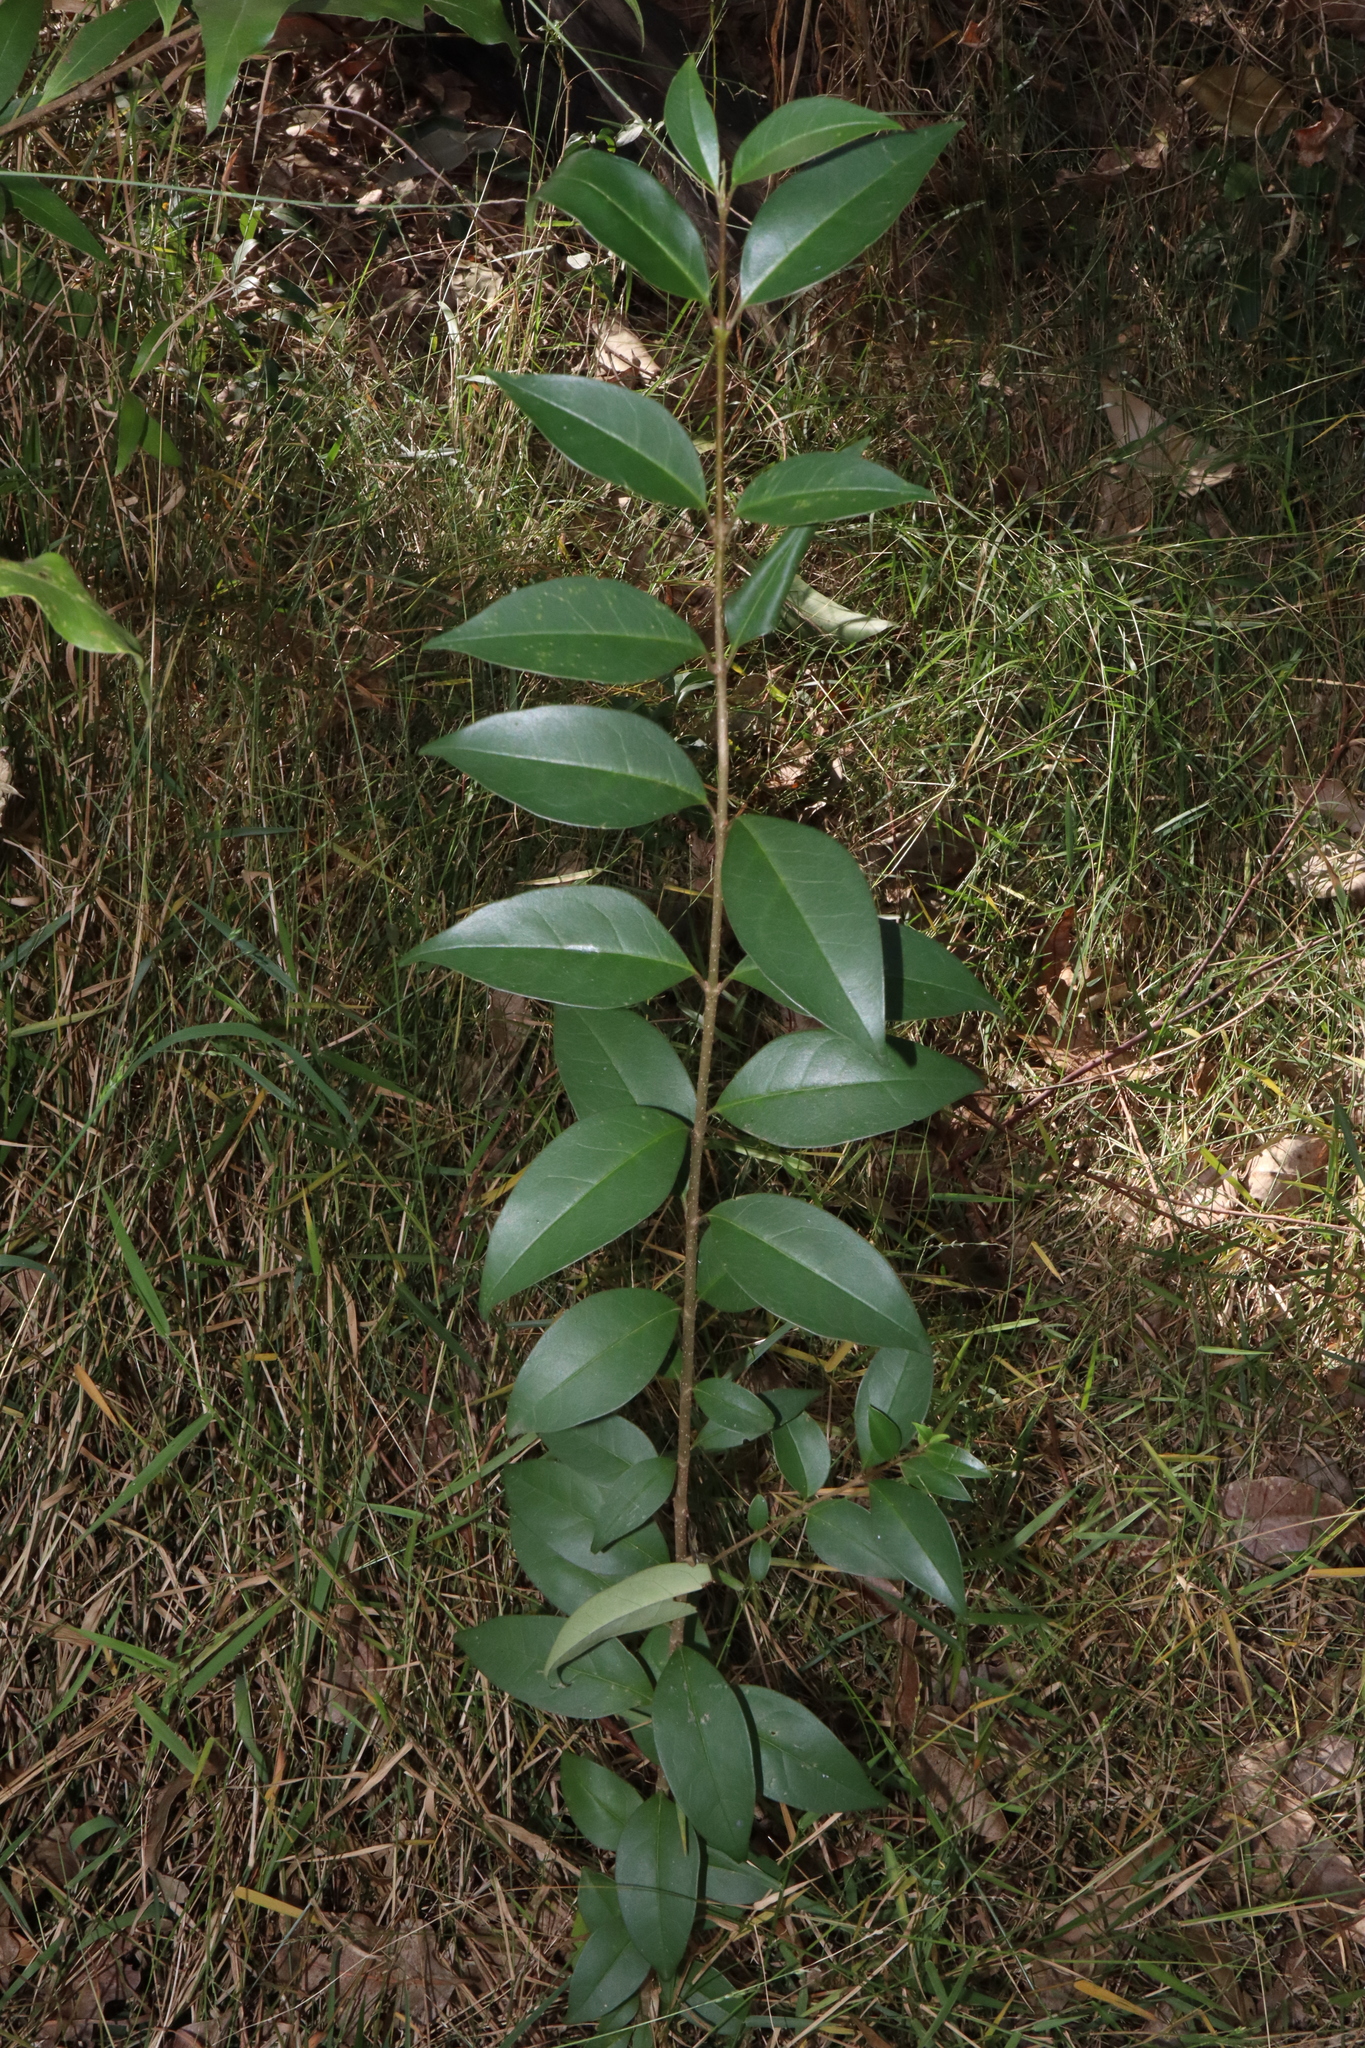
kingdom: Plantae
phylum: Tracheophyta
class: Magnoliopsida
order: Lamiales
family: Oleaceae
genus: Ligustrum
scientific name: Ligustrum lucidum
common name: Glossy privet
